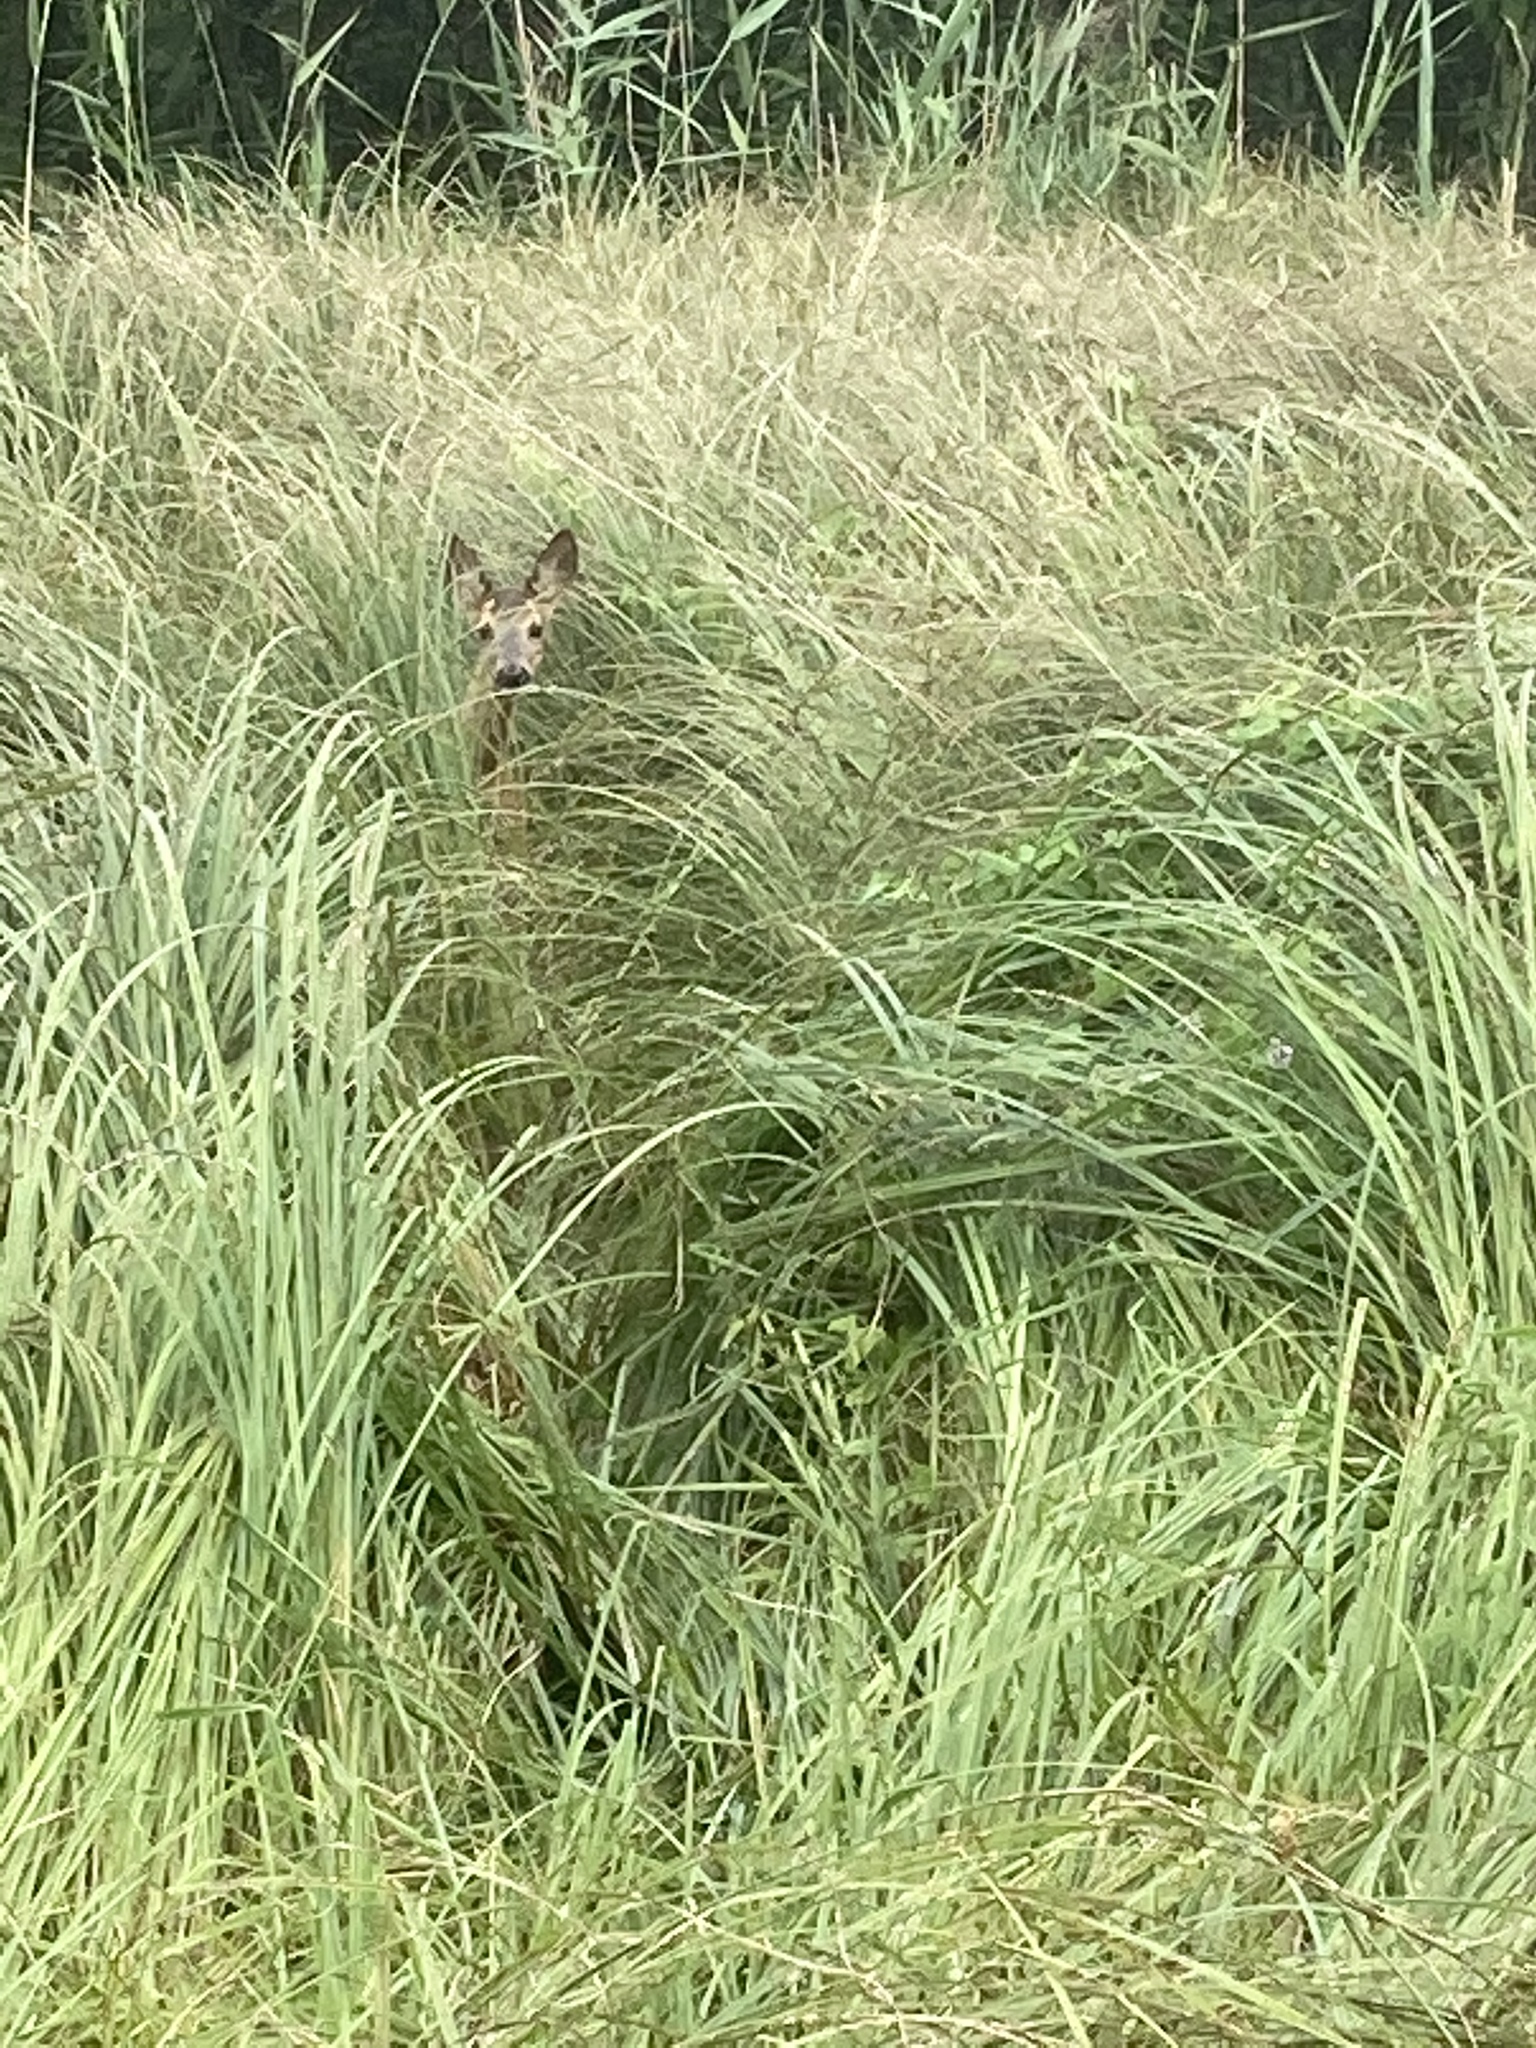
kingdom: Animalia
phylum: Chordata
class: Mammalia
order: Artiodactyla
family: Cervidae
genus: Capreolus
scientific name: Capreolus capreolus
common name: Western roe deer
